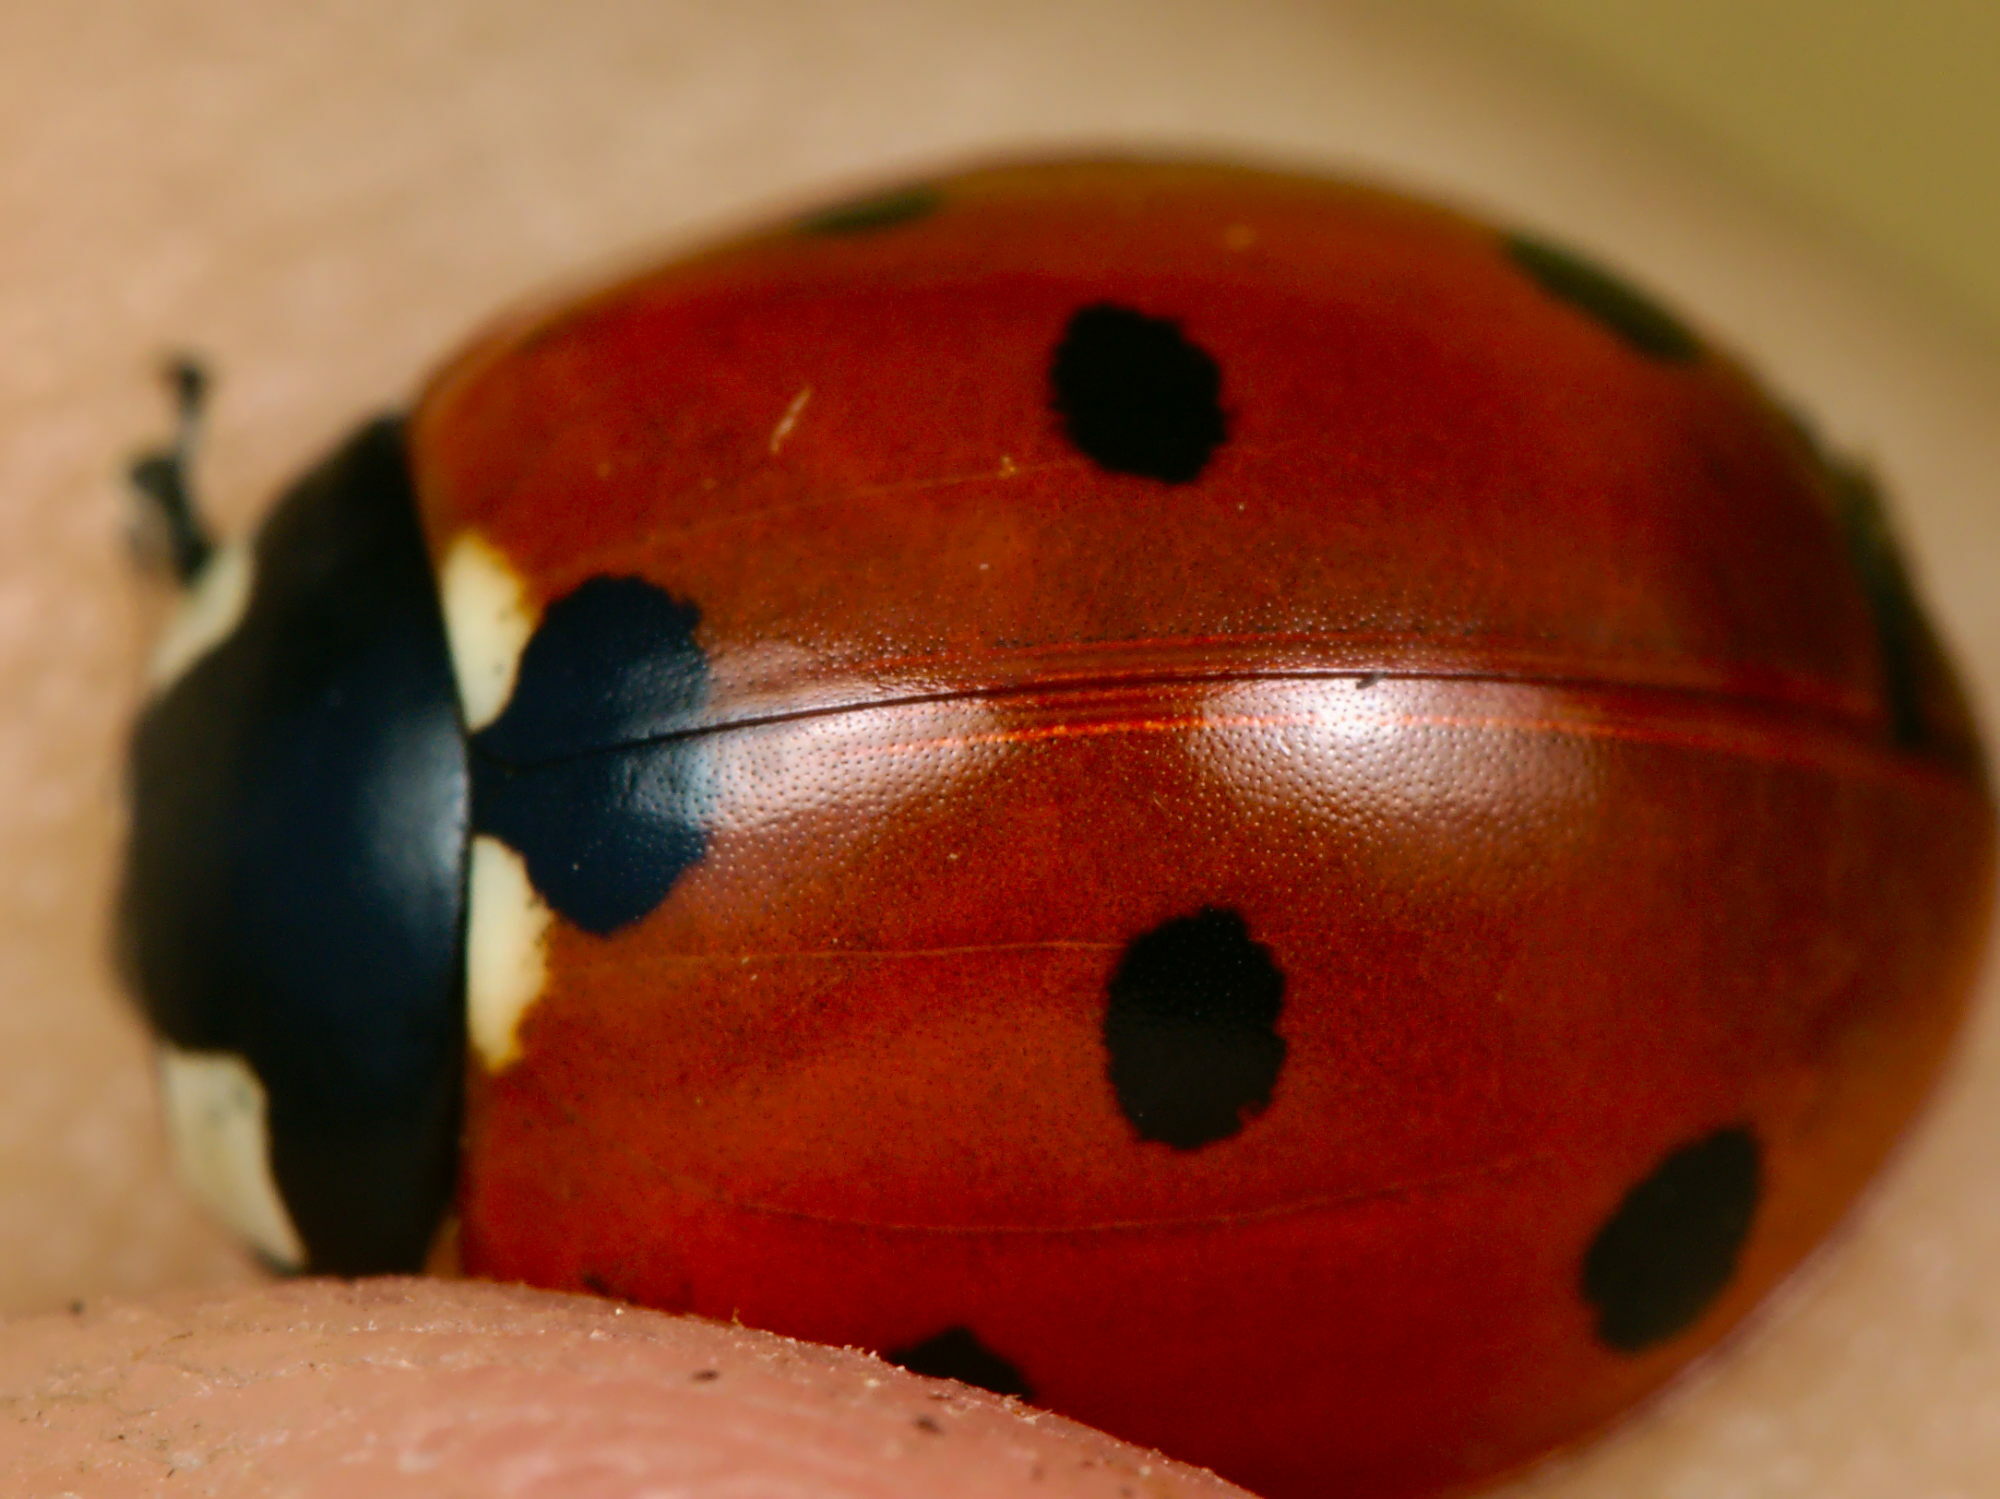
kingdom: Animalia
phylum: Arthropoda
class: Insecta
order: Coleoptera
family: Coccinellidae
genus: Coccinella
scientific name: Coccinella septempunctata
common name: Sevenspotted lady beetle
